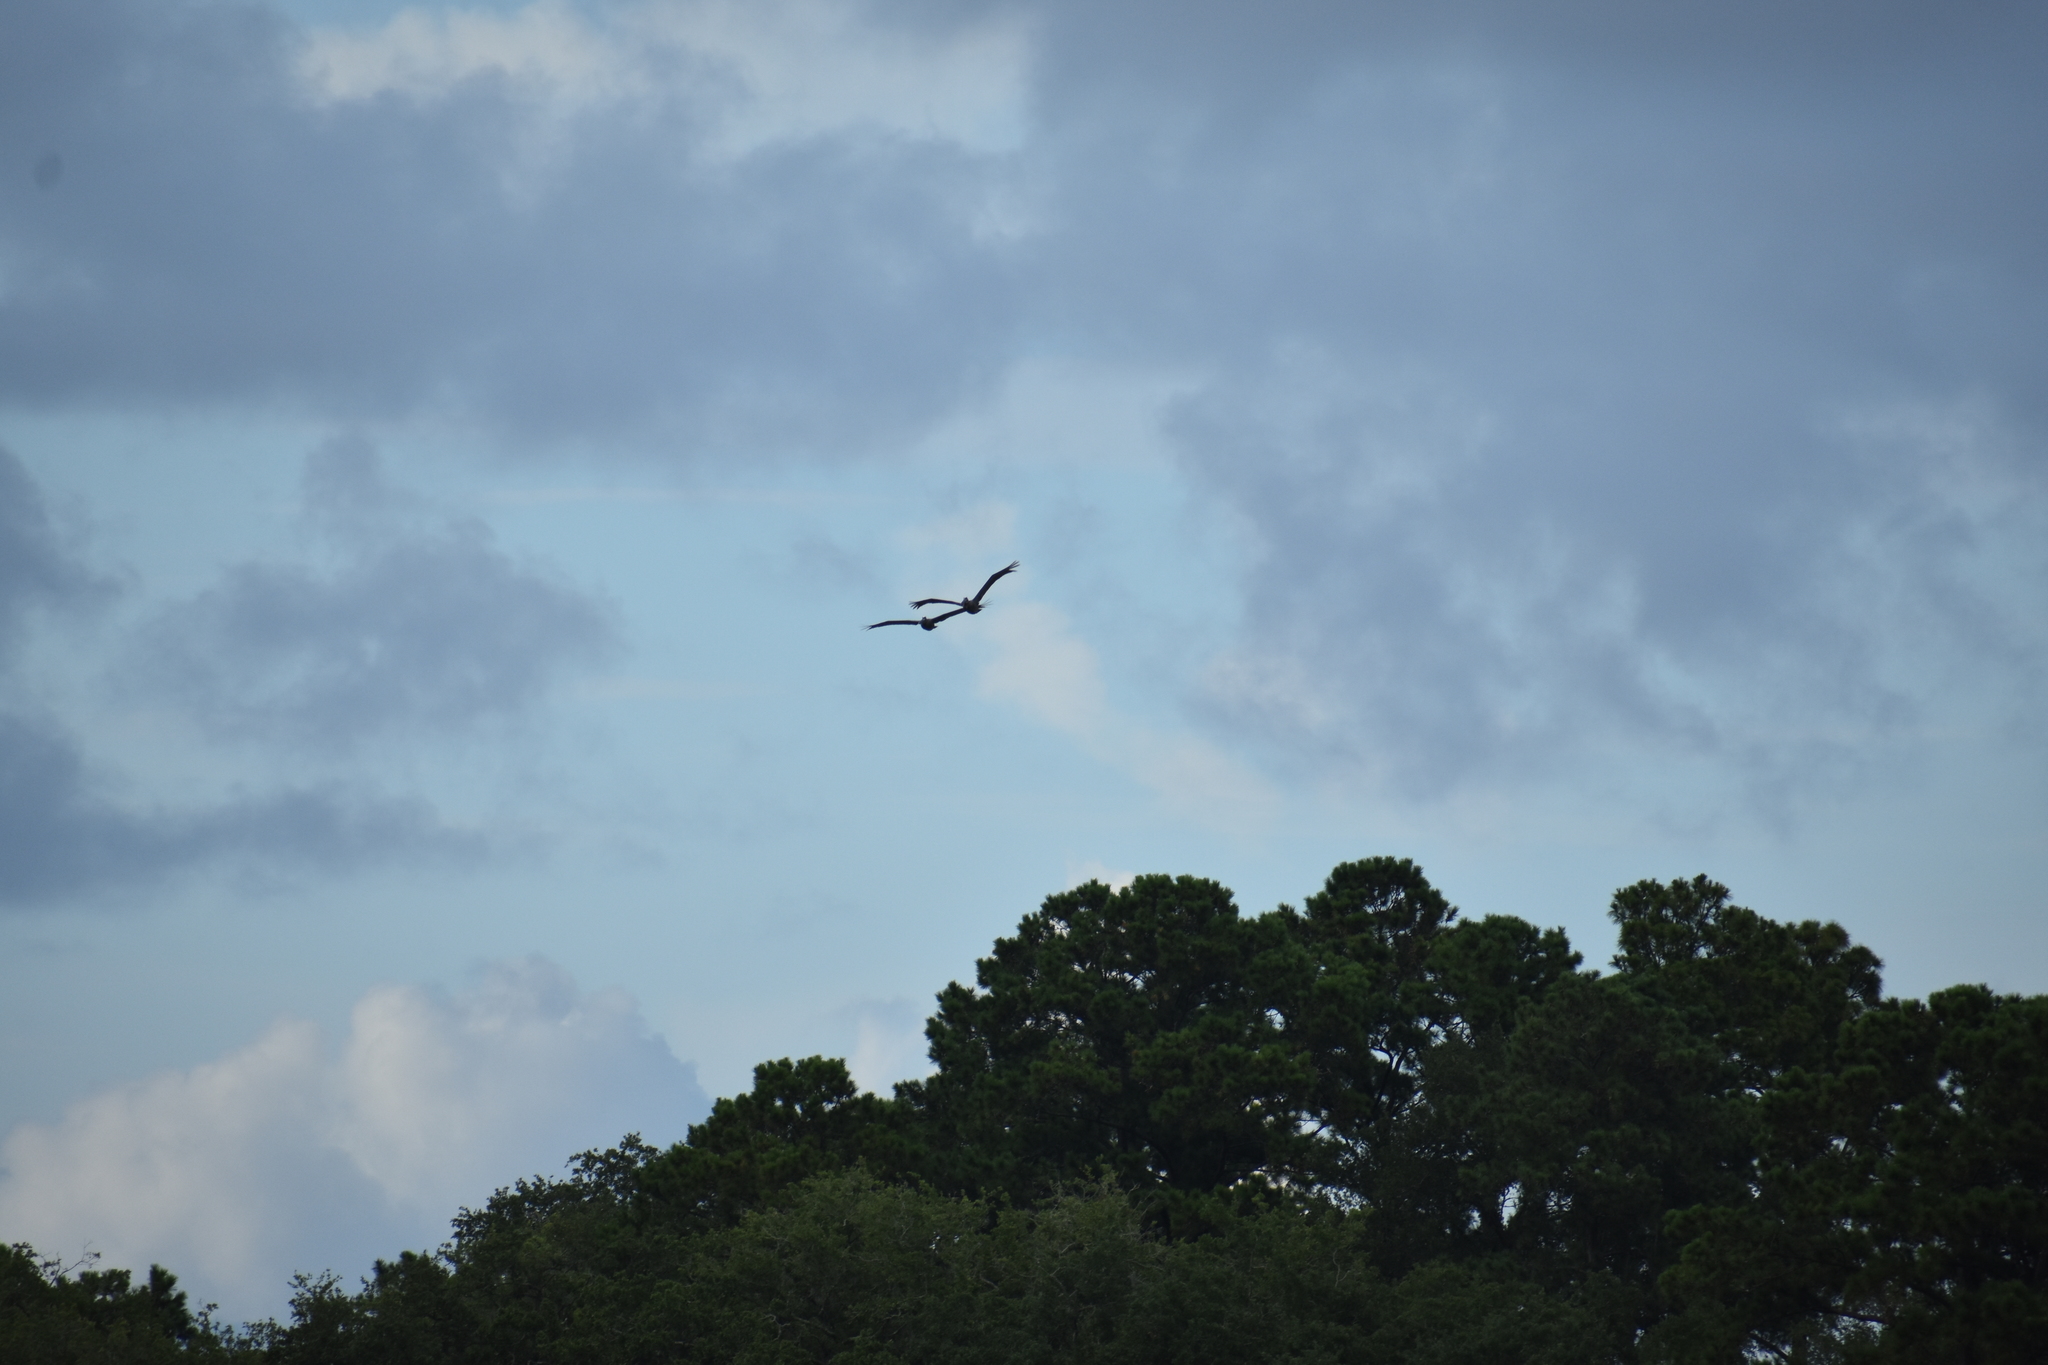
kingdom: Animalia
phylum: Chordata
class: Aves
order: Pelecaniformes
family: Pelecanidae
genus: Pelecanus
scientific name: Pelecanus occidentalis
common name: Brown pelican
